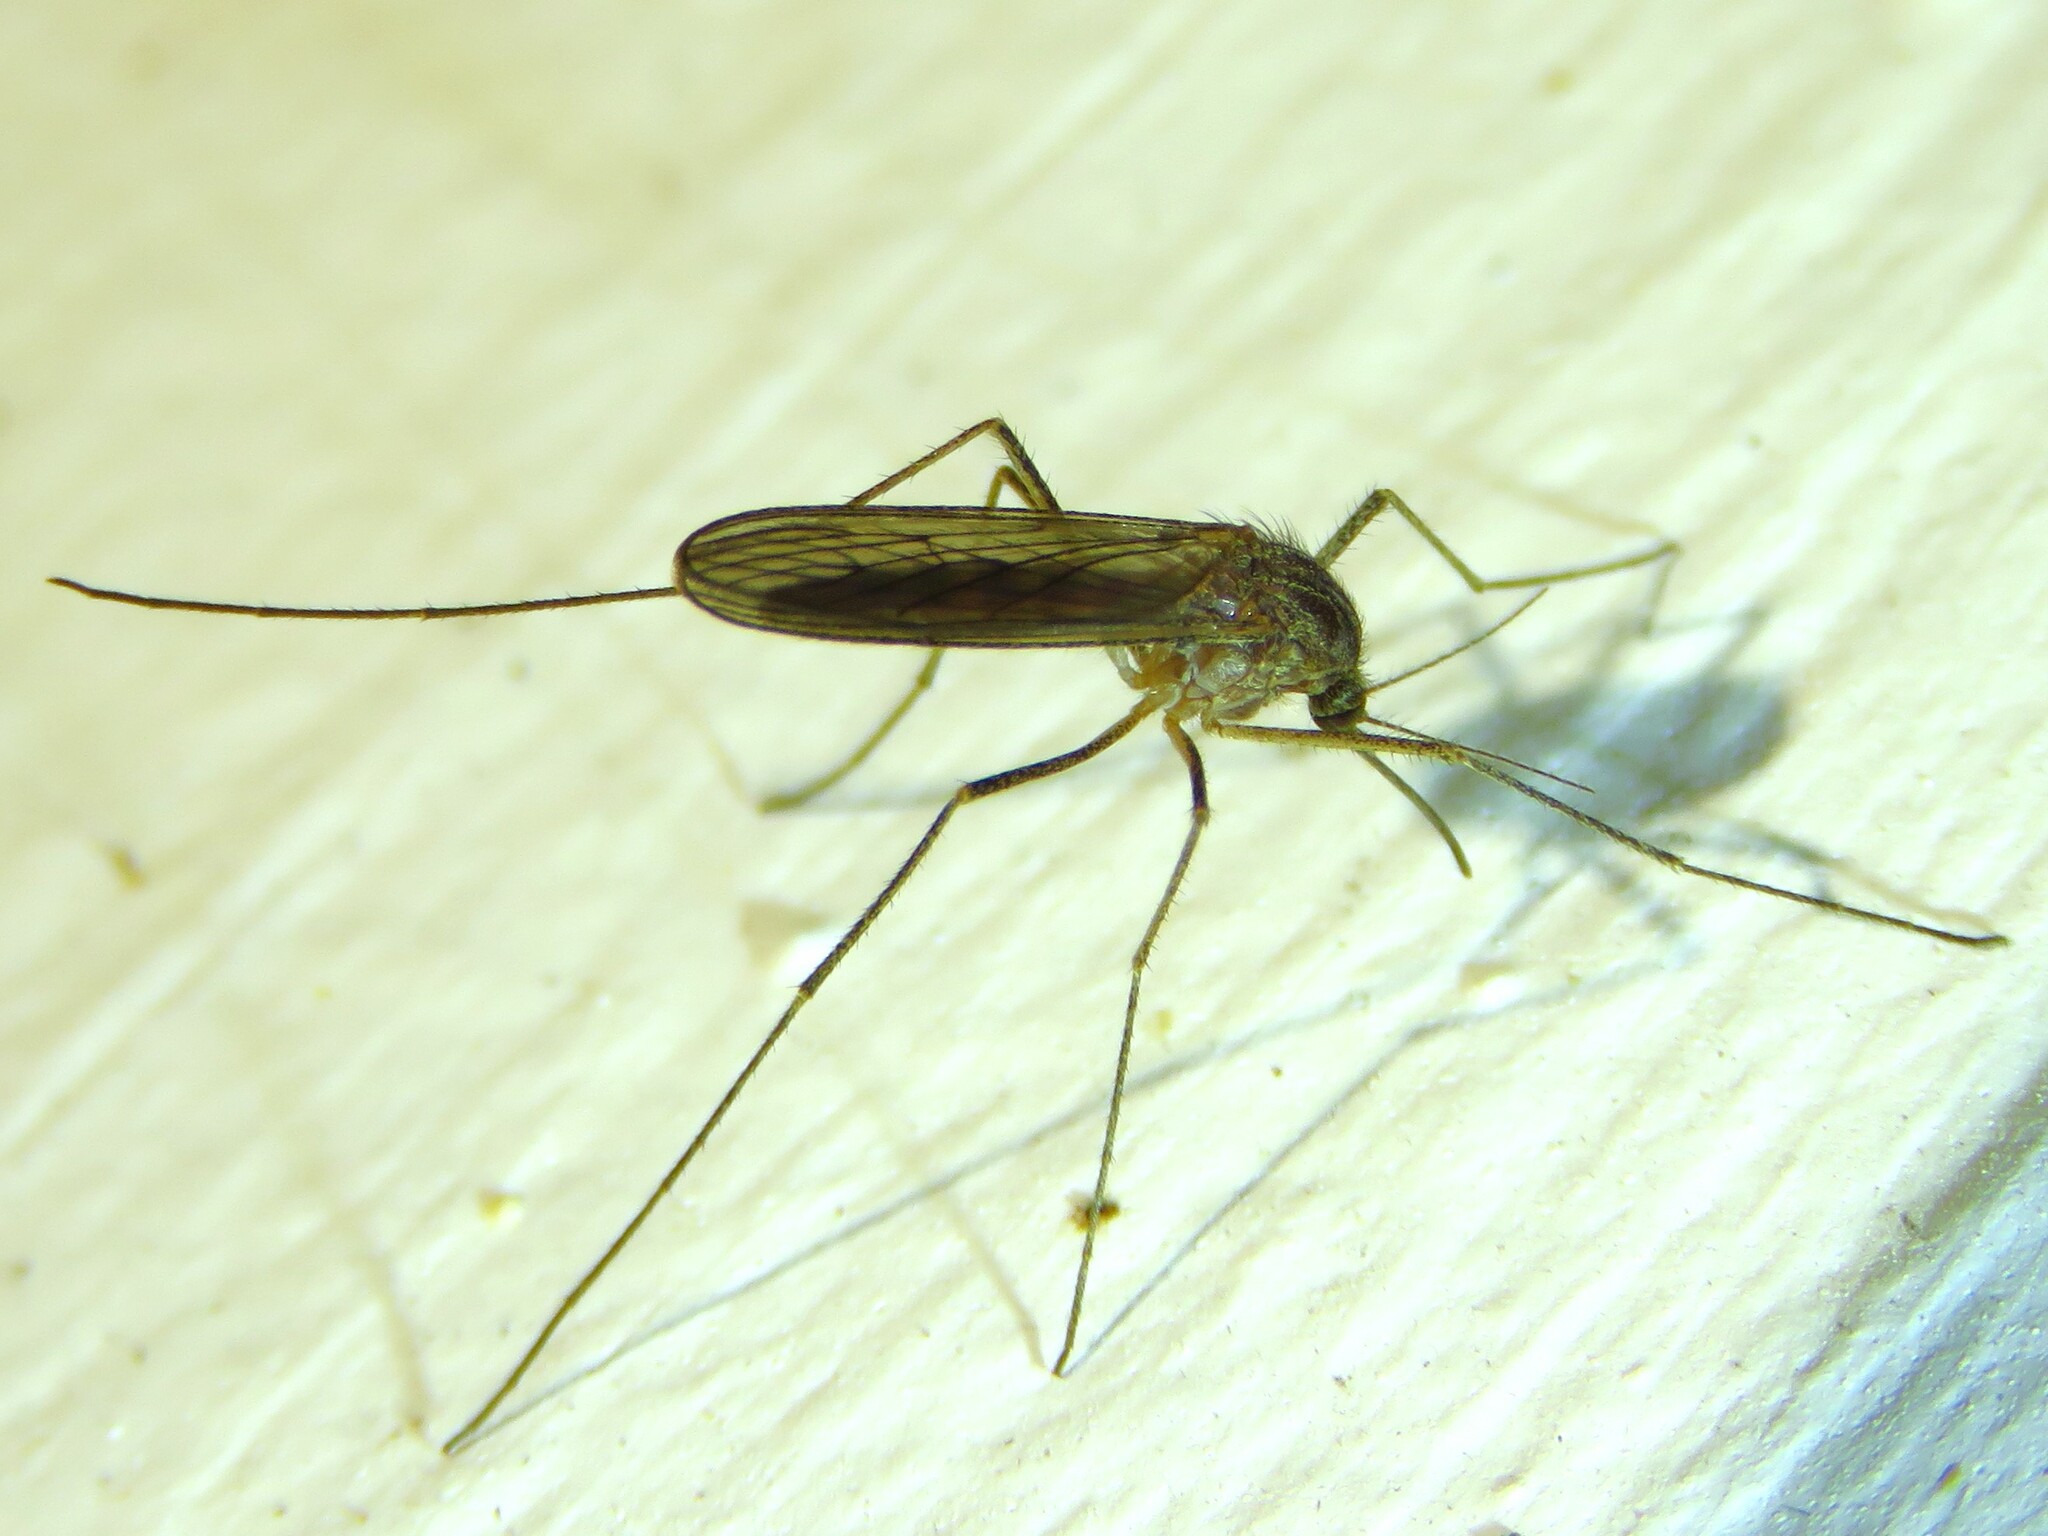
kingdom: Animalia
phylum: Arthropoda
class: Insecta
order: Diptera
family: Culicidae
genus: Culiseta
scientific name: Culiseta inornata
